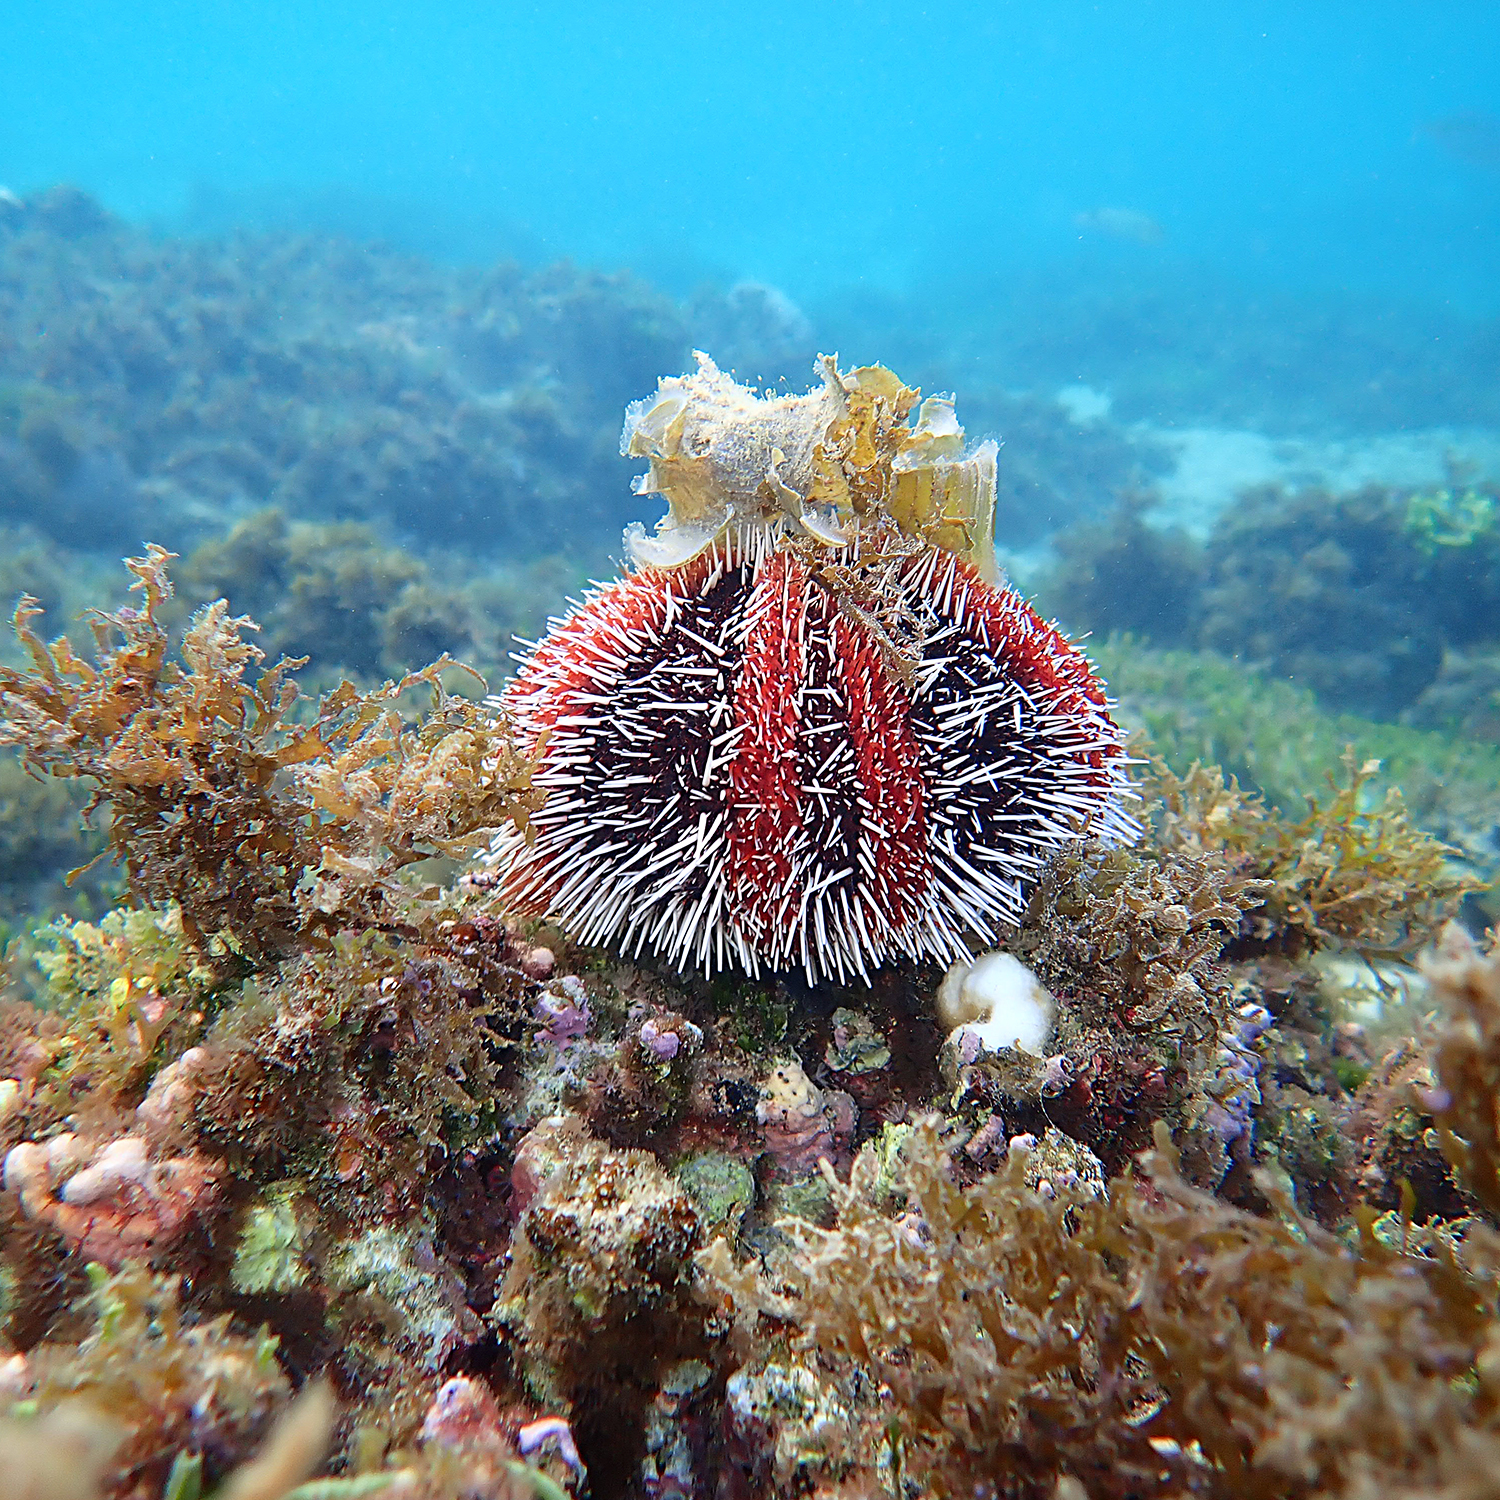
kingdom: Animalia
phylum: Echinodermata
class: Echinoidea
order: Camarodonta
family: Toxopneustidae
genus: Tripneustes
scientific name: Tripneustes gratilla
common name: Bischofsmützenseeigel
